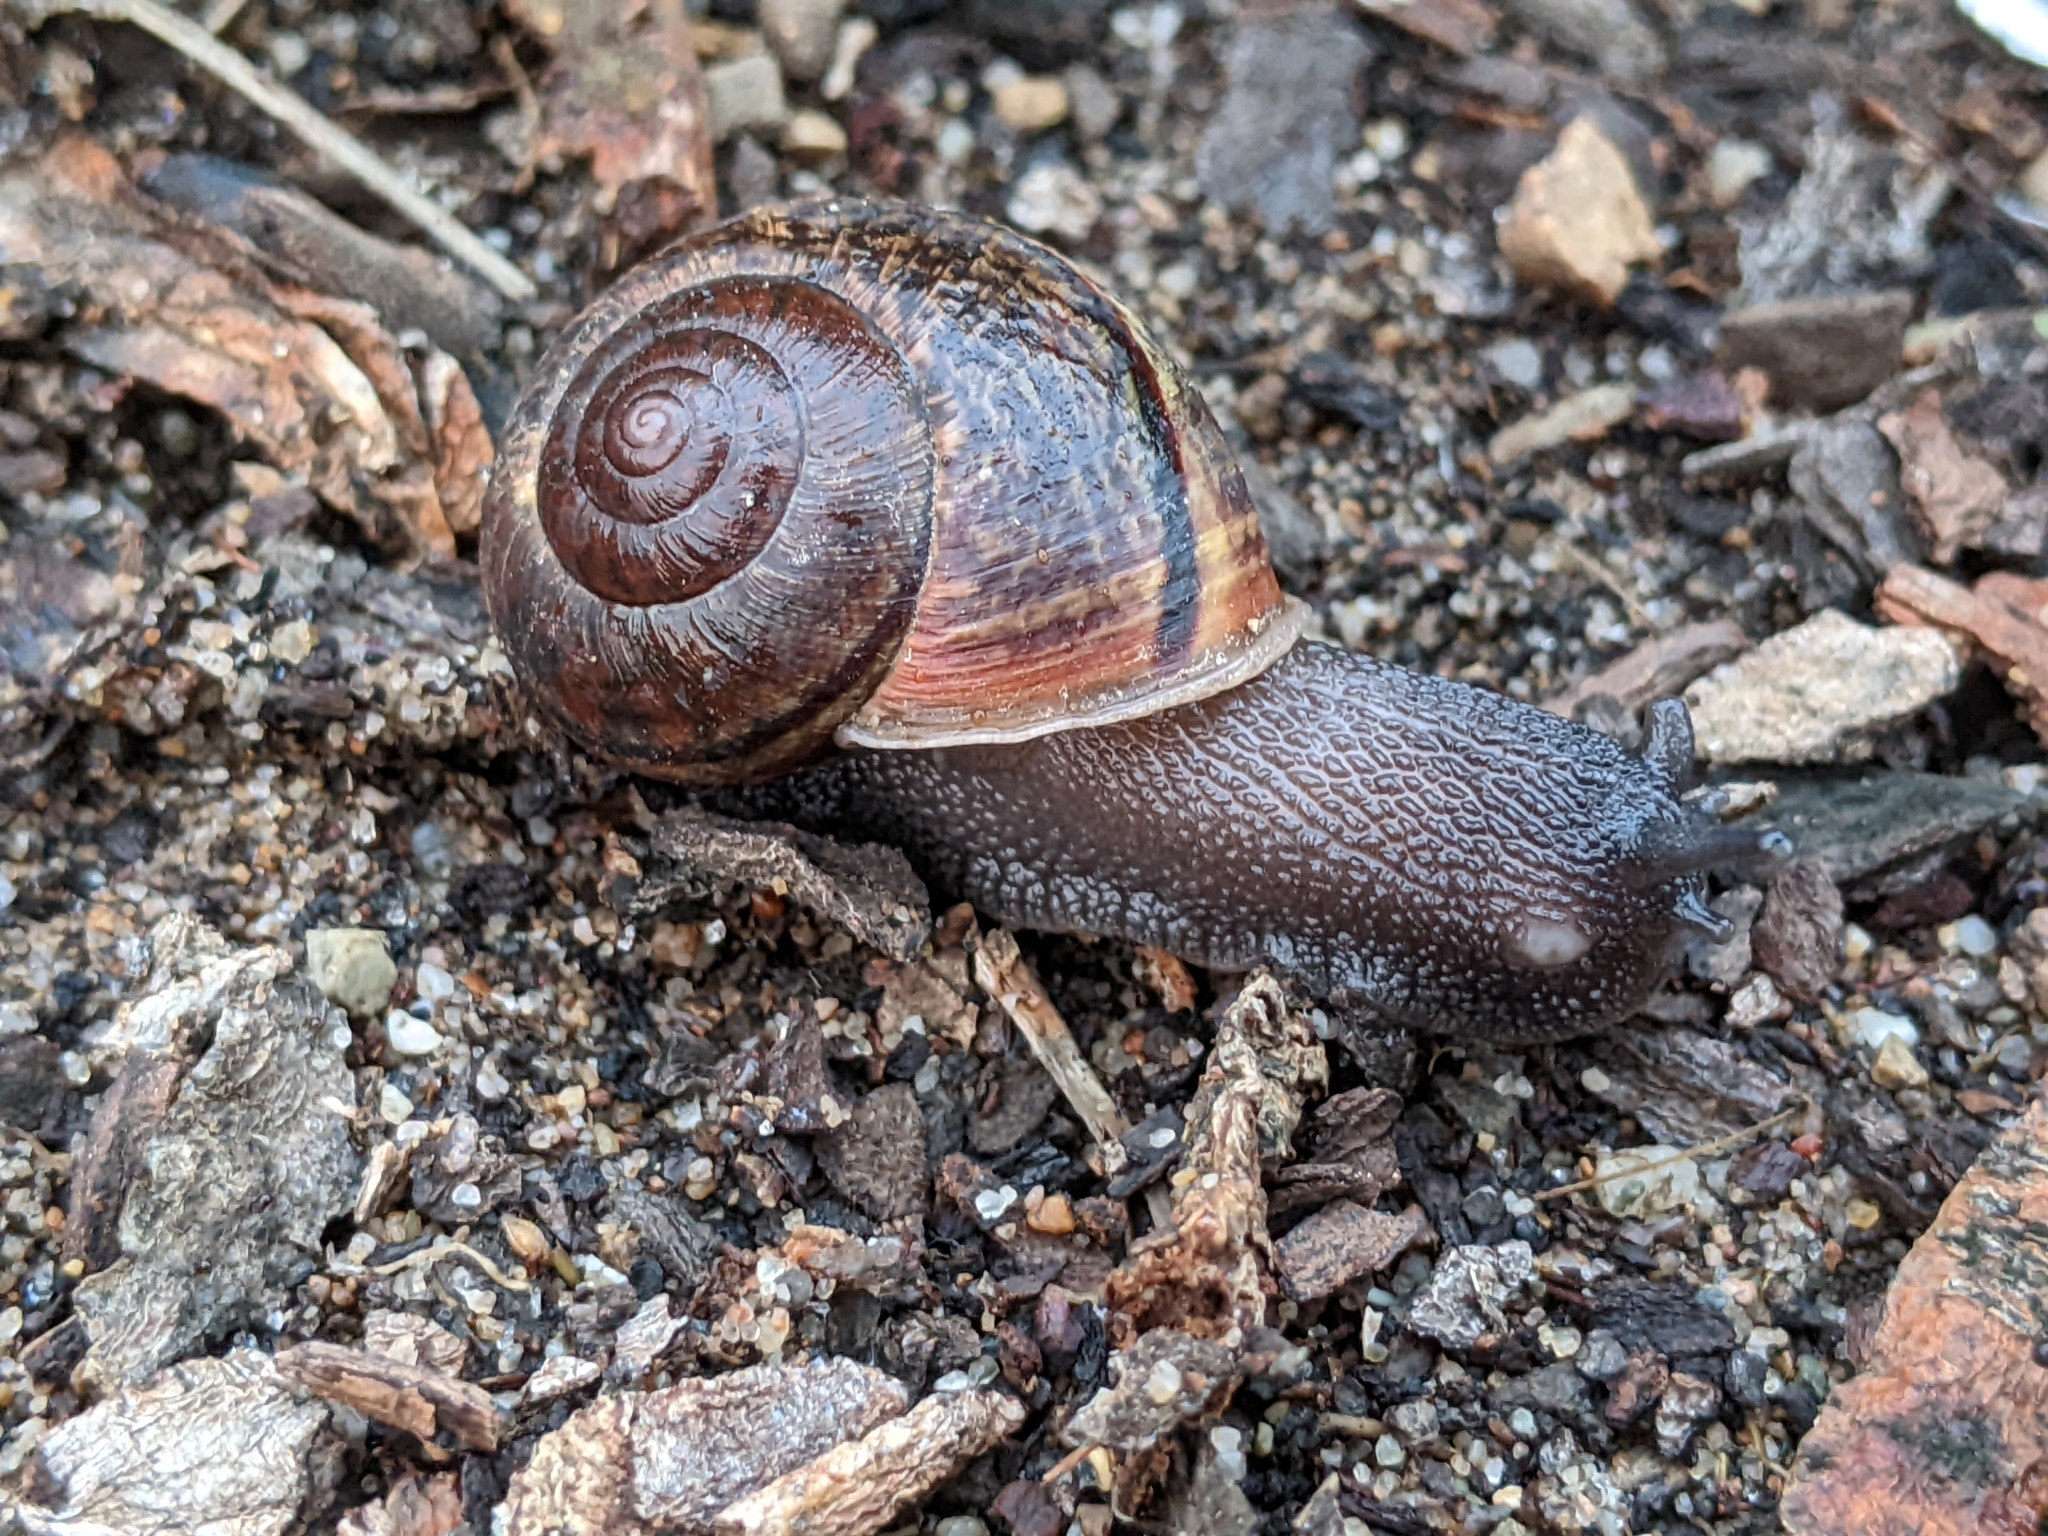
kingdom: Animalia
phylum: Mollusca
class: Gastropoda
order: Stylommatophora
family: Xanthonychidae
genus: Helminthoglypta
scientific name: Helminthoglypta nickliniana
